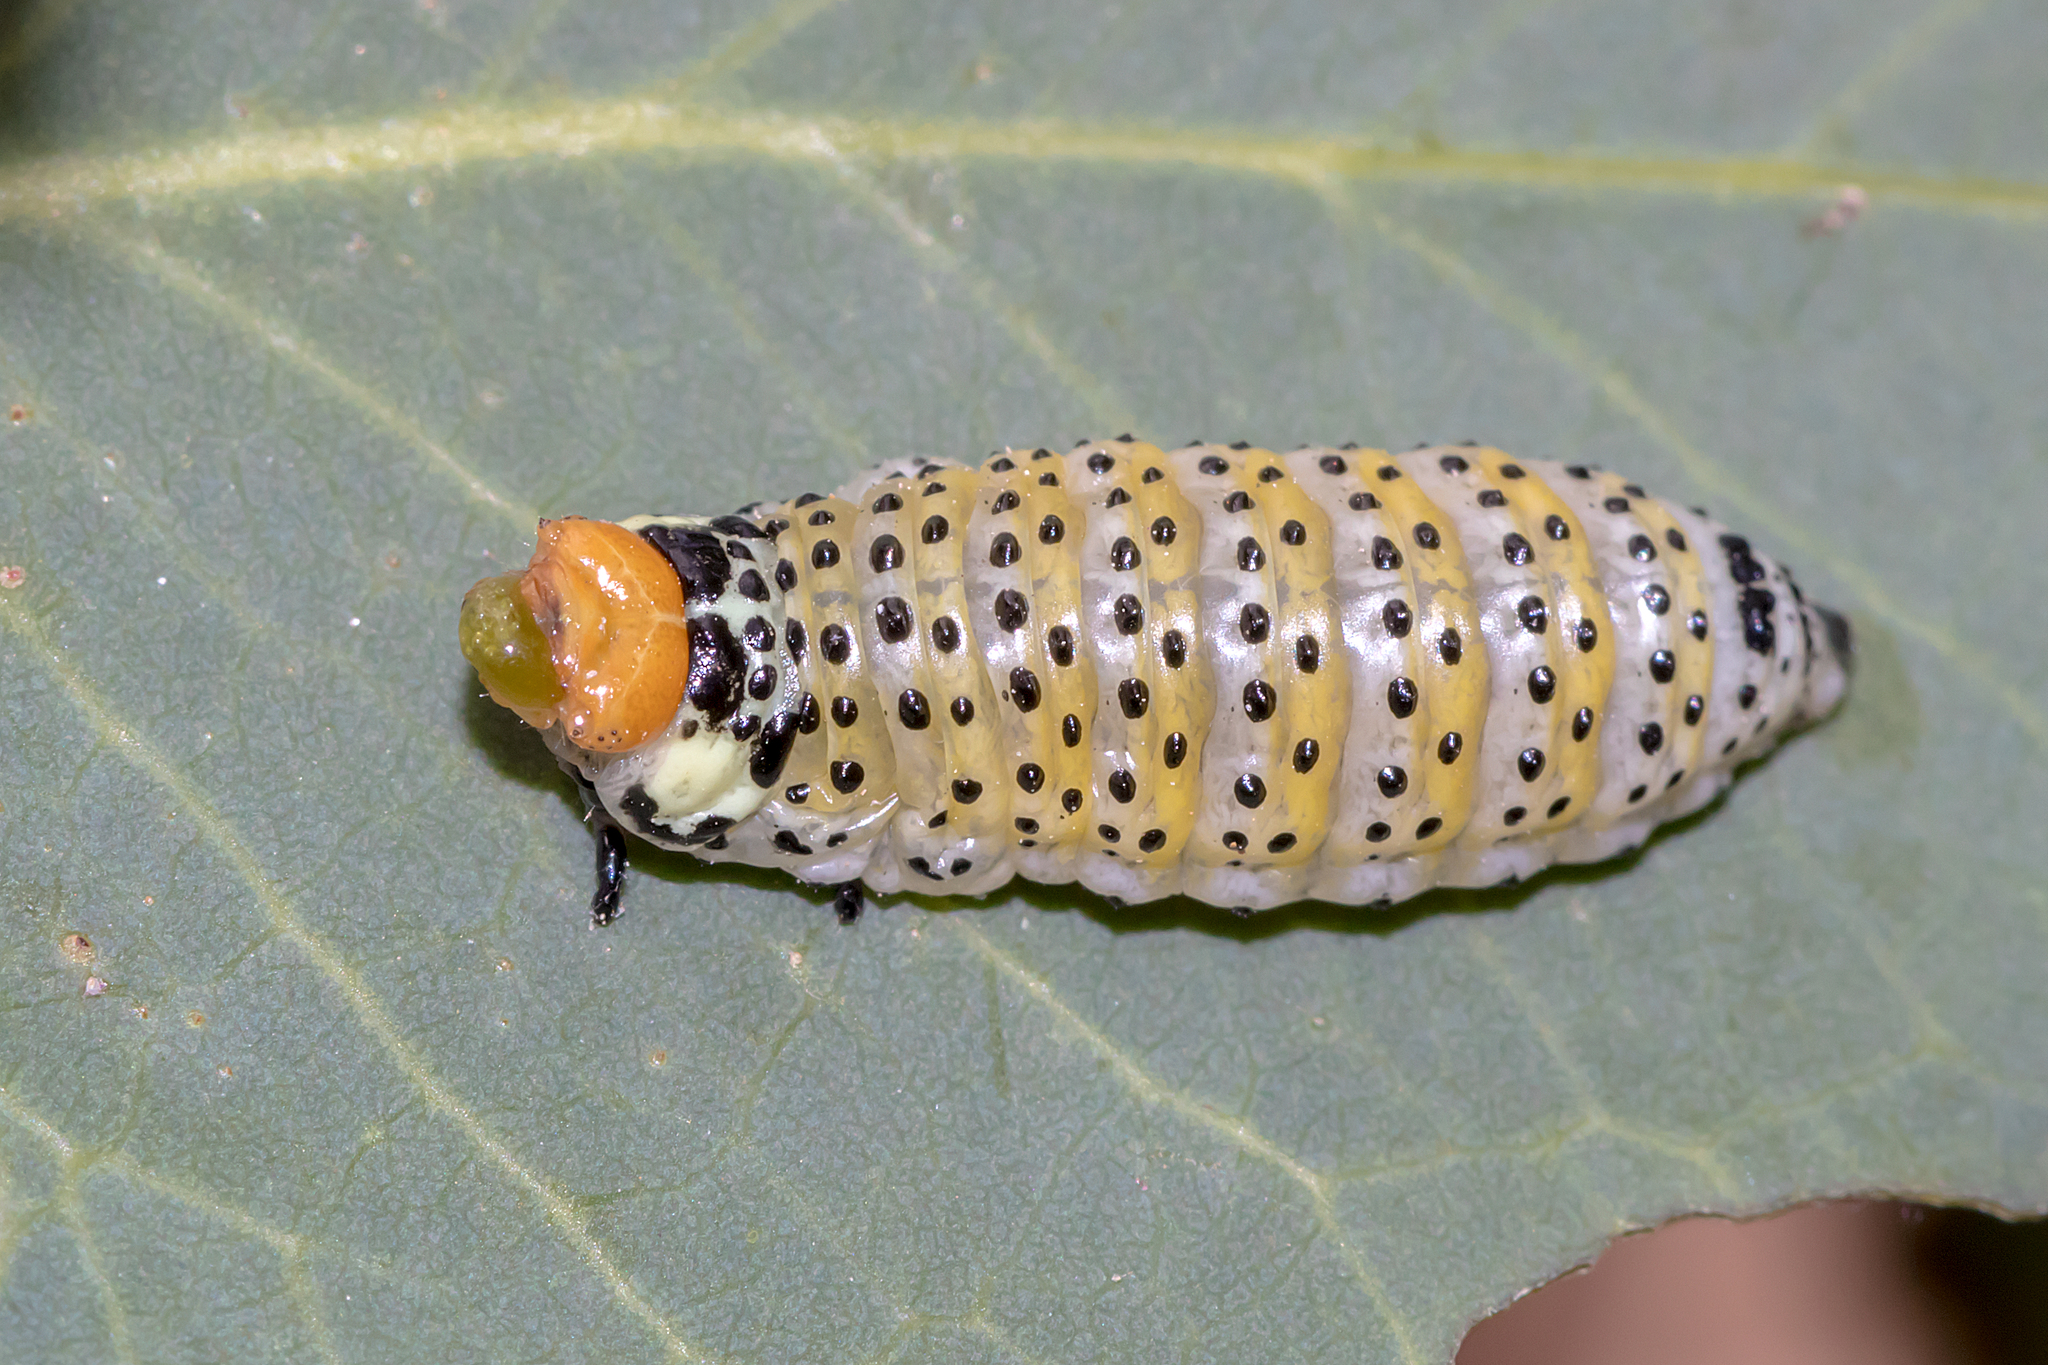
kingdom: Animalia
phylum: Arthropoda
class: Insecta
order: Coleoptera
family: Chrysomelidae
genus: Paropsisterna
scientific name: Paropsisterna
